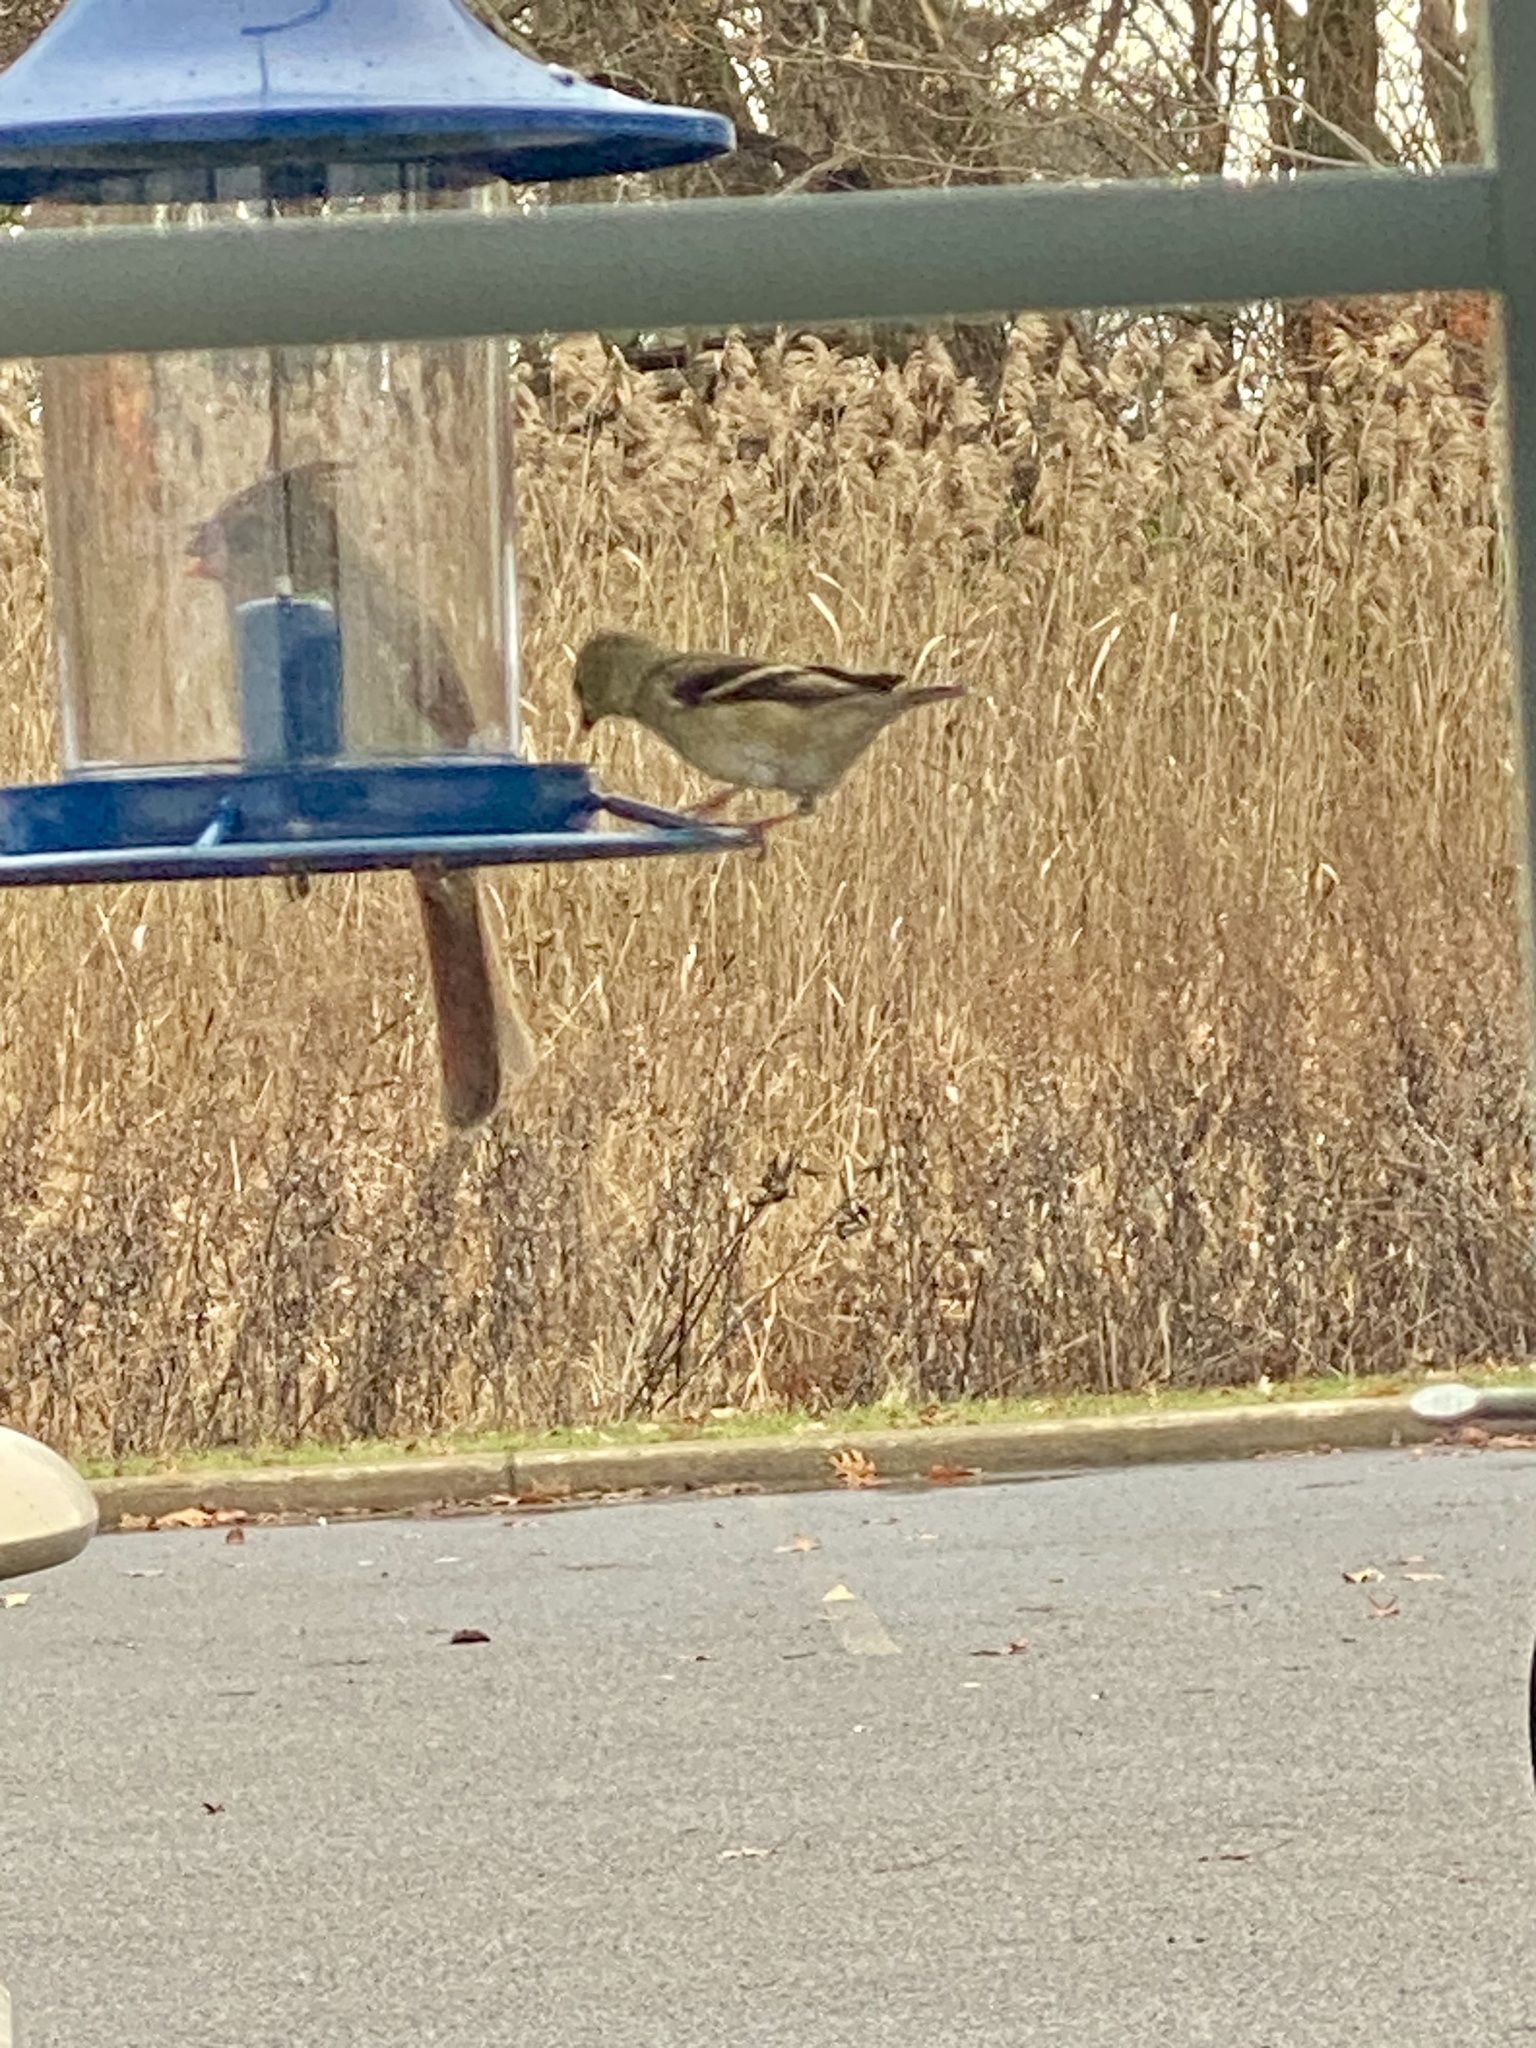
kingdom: Animalia
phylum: Chordata
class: Aves
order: Passeriformes
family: Fringillidae
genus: Spinus
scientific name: Spinus tristis
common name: American goldfinch
